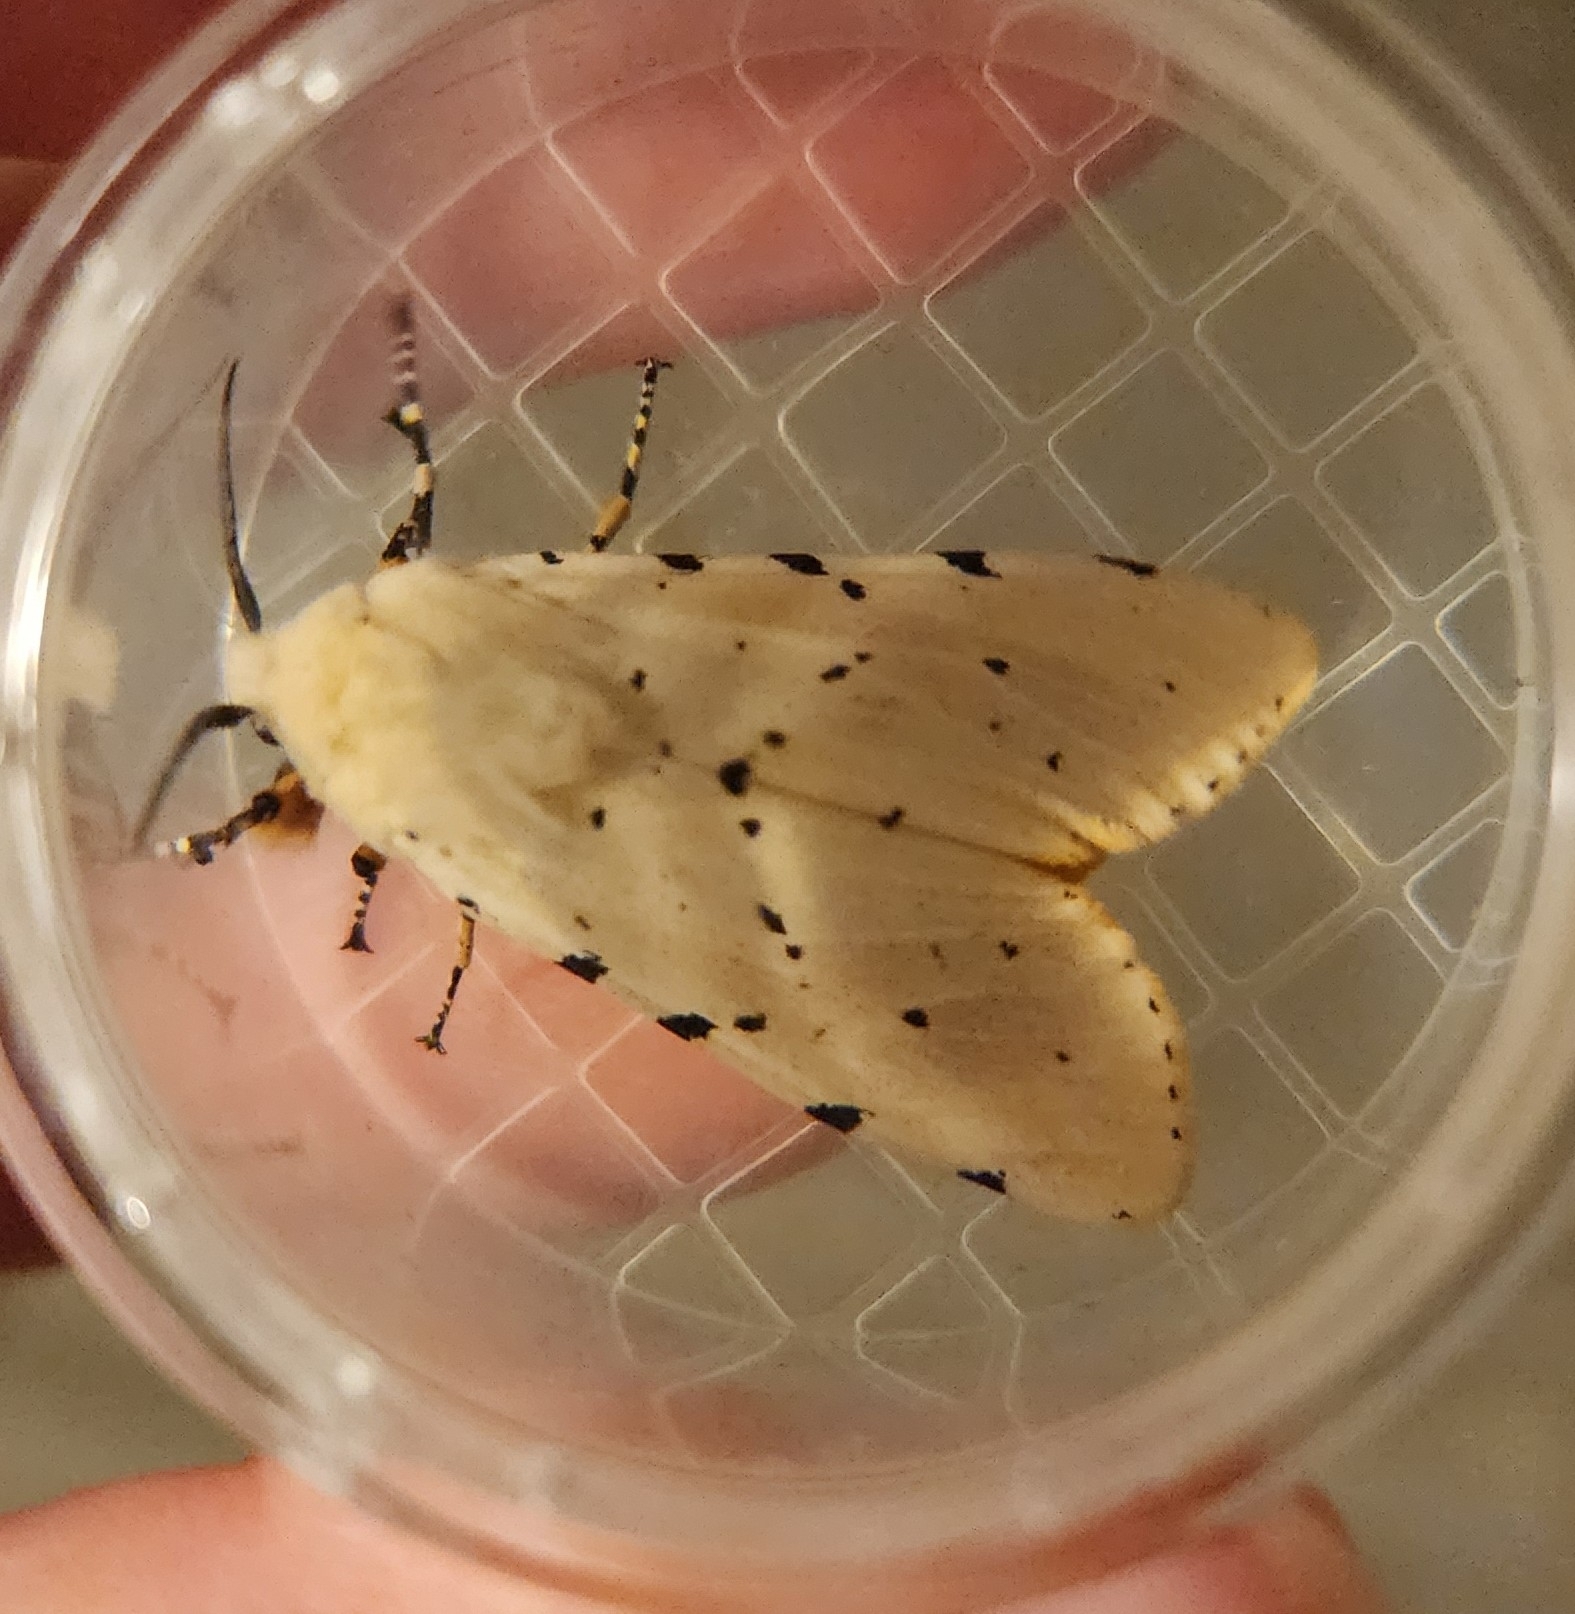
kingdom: Animalia
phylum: Arthropoda
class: Insecta
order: Lepidoptera
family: Erebidae
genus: Estigmene
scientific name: Estigmene acrea
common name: Salt marsh moth
